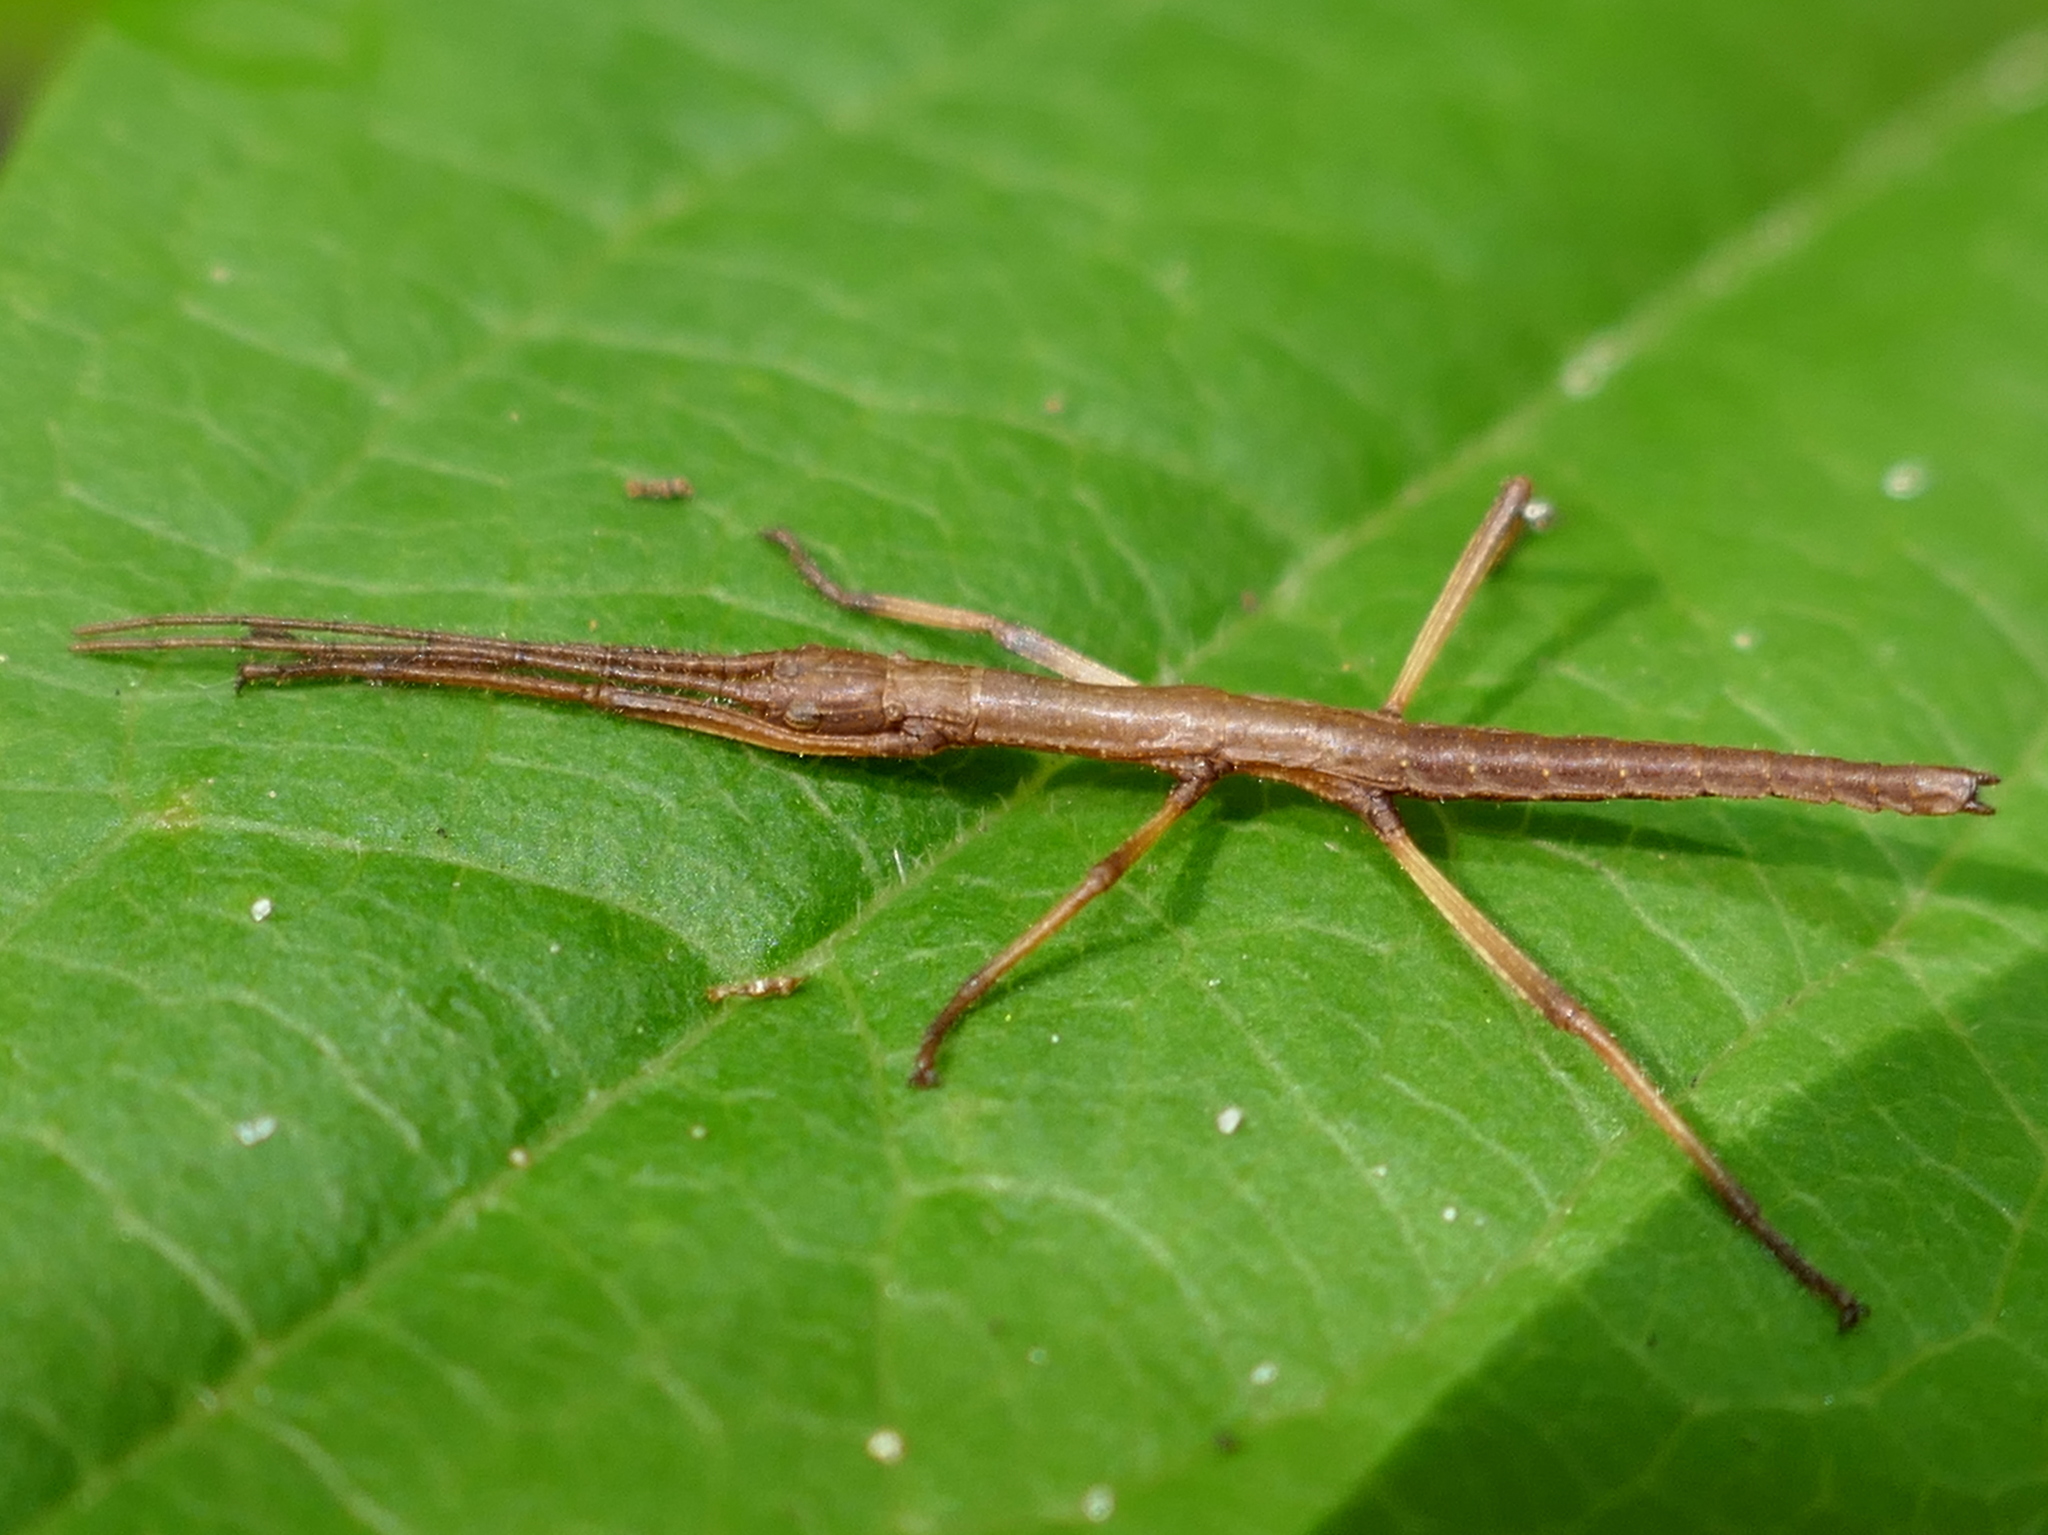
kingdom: Animalia
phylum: Arthropoda
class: Insecta
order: Phasmida
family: Pseudophasmatidae
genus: Anisomorpha
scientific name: Anisomorpha buprestoides
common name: Florida stick insect
